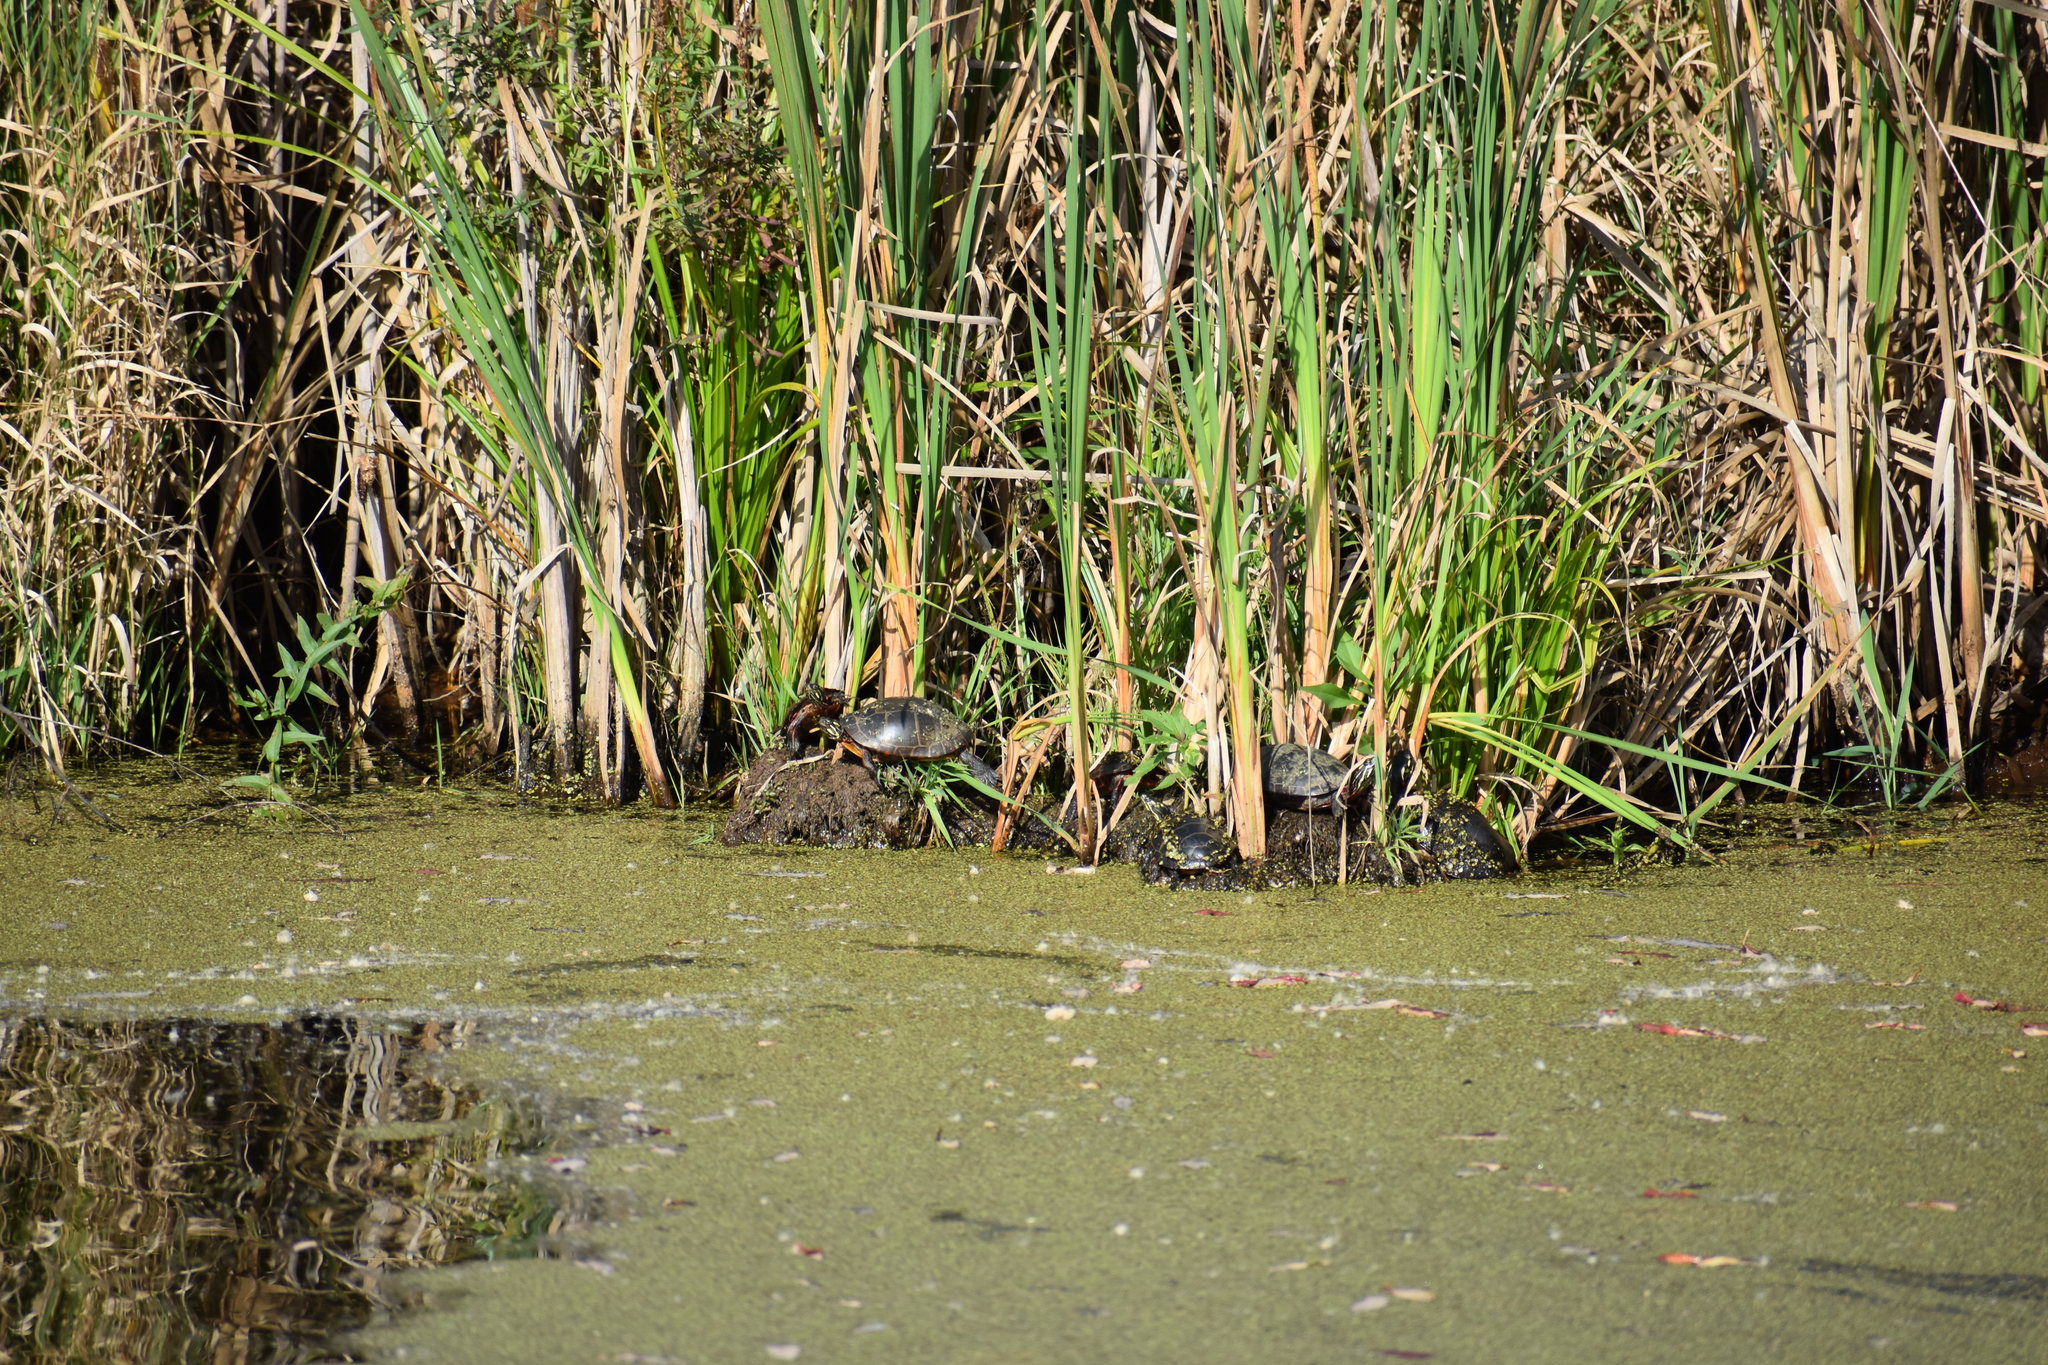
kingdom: Animalia
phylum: Chordata
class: Testudines
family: Emydidae
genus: Chrysemys
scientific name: Chrysemys picta
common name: Painted turtle
